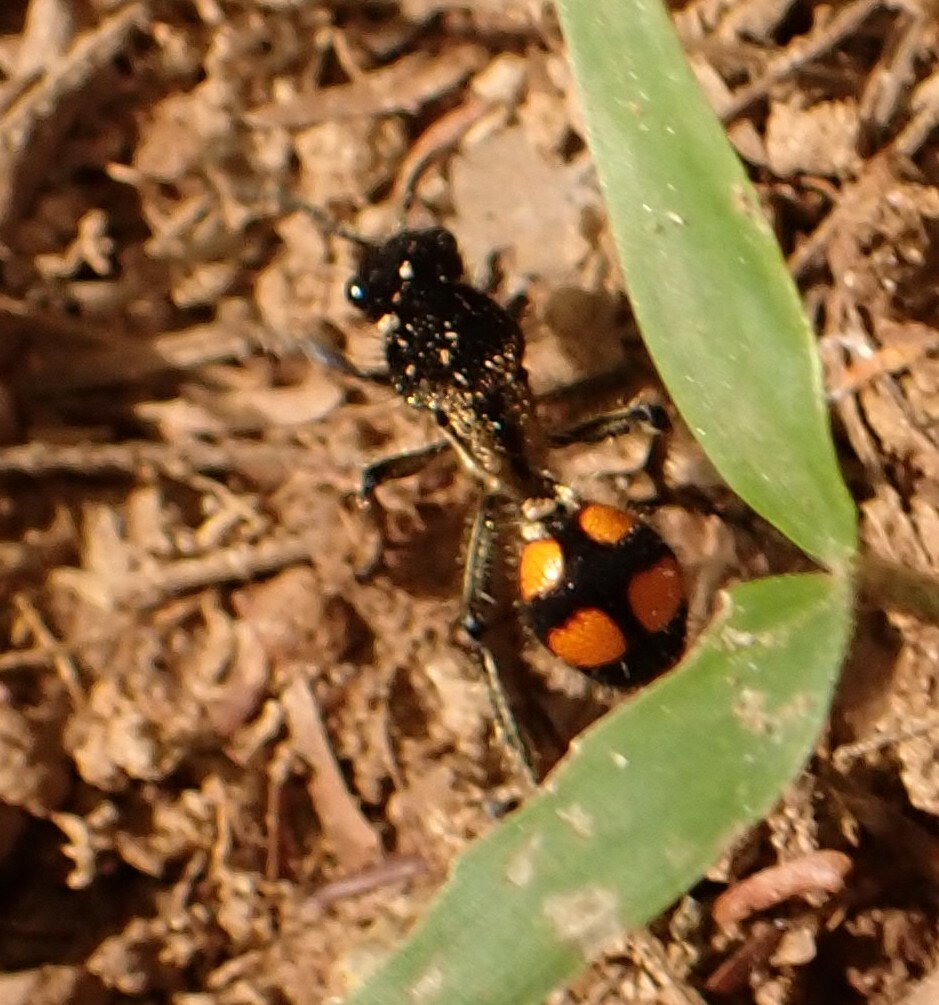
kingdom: Animalia
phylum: Arthropoda
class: Insecta
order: Hymenoptera
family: Mutillidae
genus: Traumatomutilla
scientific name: Traumatomutilla inermis
